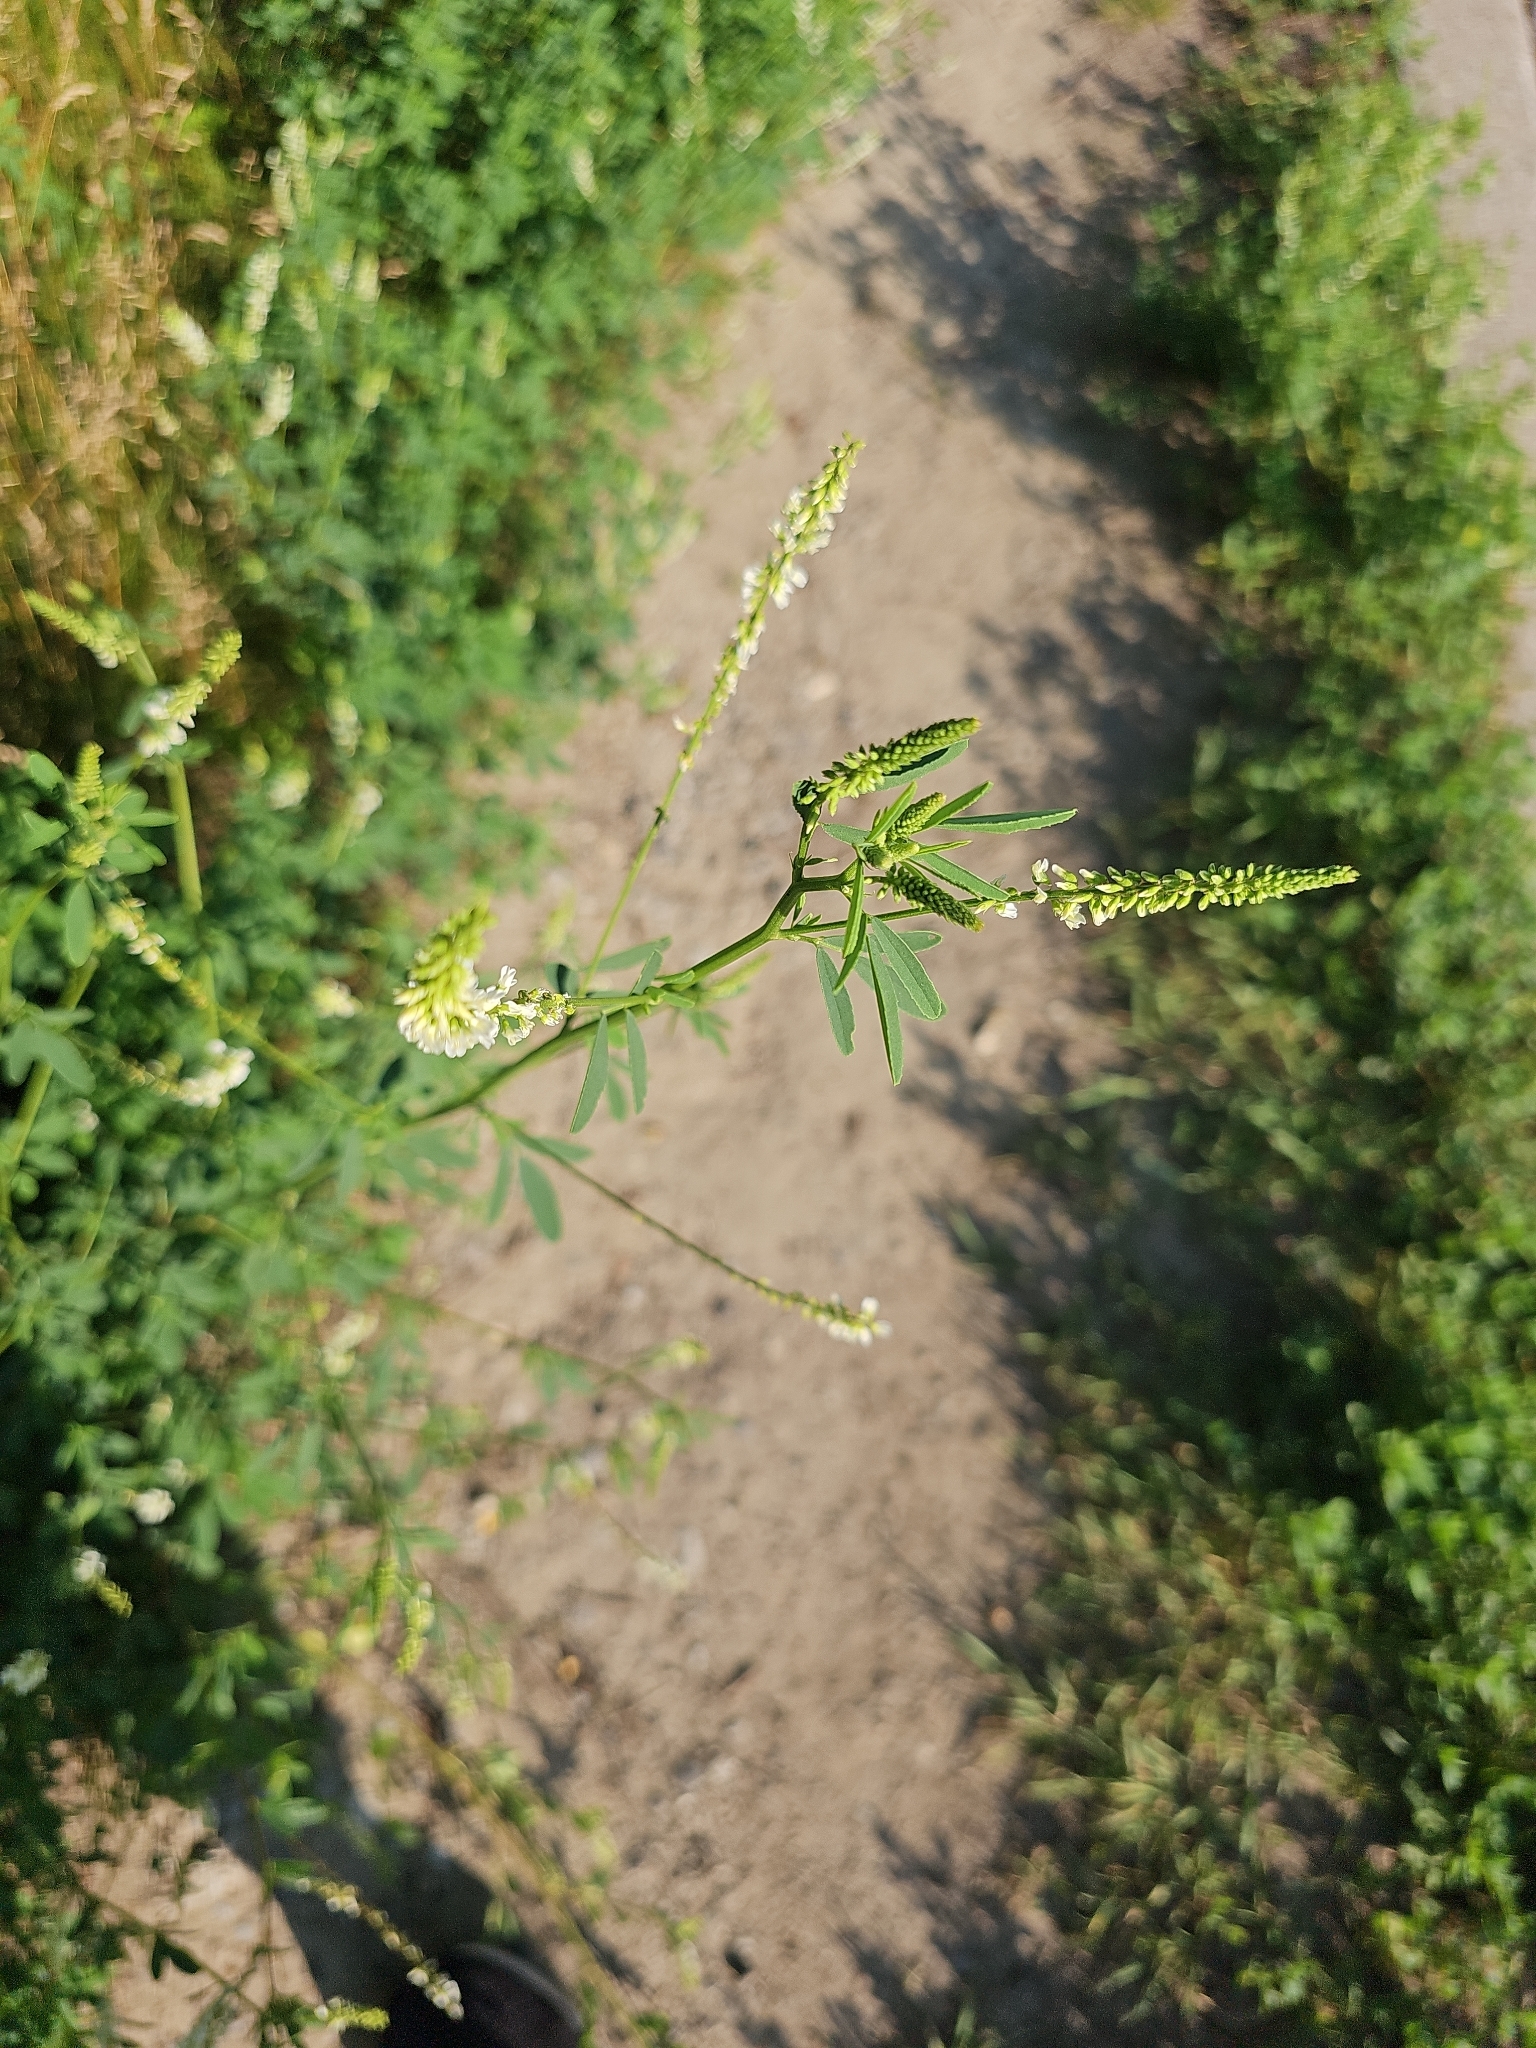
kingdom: Plantae
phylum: Tracheophyta
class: Magnoliopsida
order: Fabales
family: Fabaceae
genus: Melilotus
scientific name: Melilotus albus
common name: White melilot
